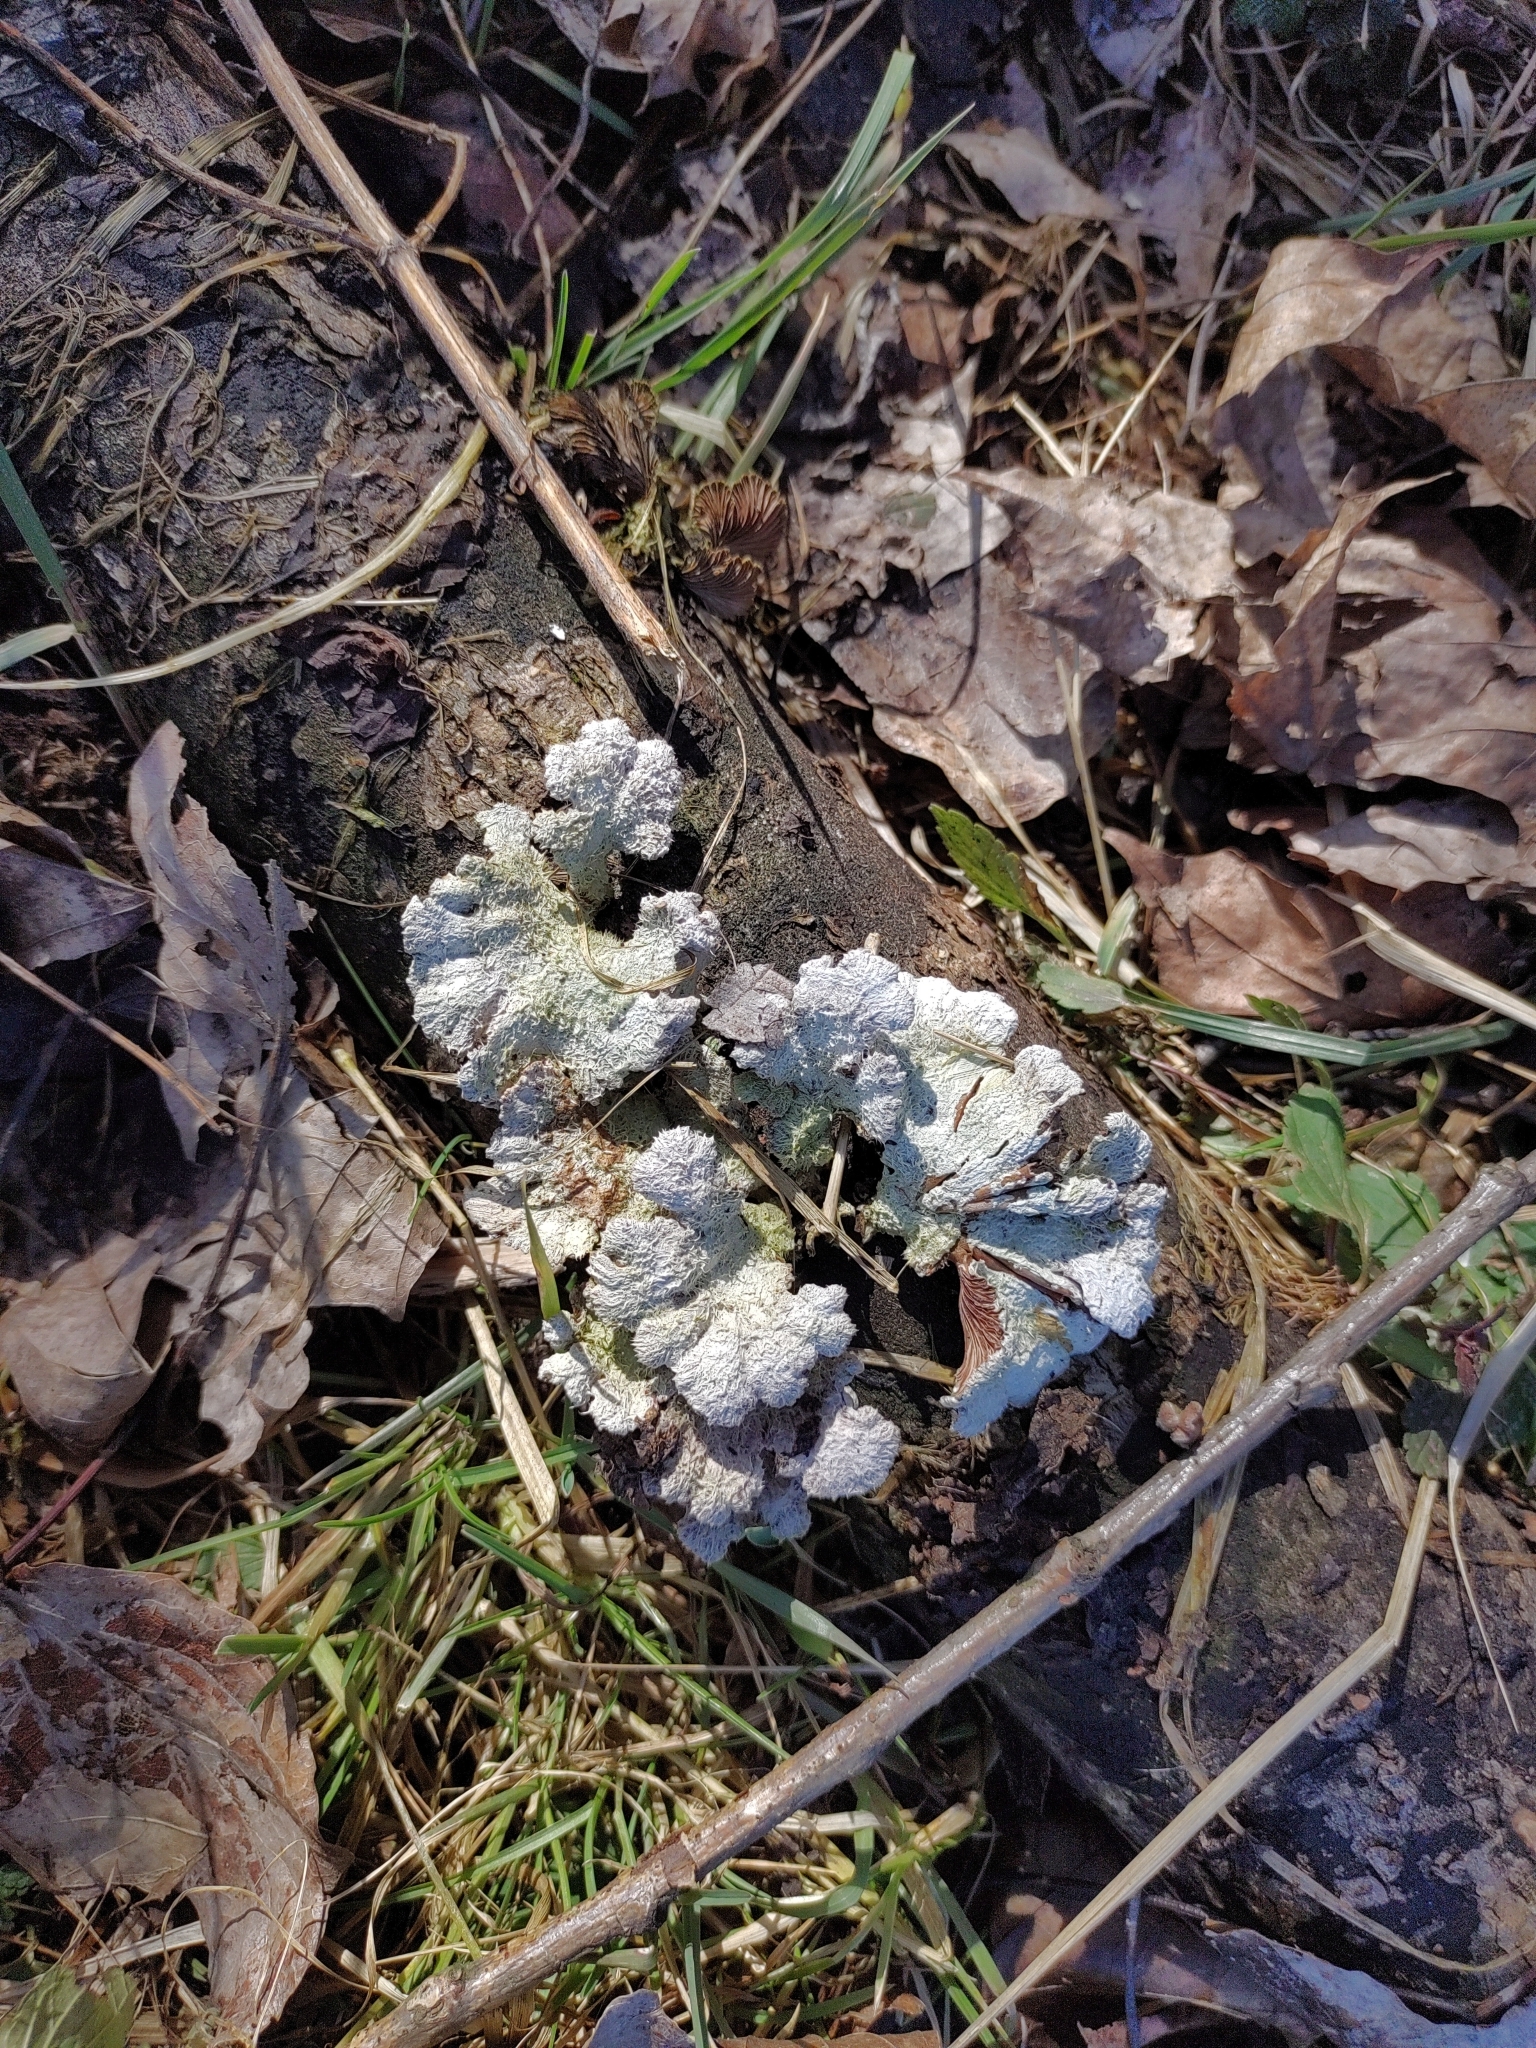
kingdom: Fungi
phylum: Basidiomycota
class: Agaricomycetes
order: Agaricales
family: Schizophyllaceae
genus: Schizophyllum
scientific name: Schizophyllum commune
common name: Common porecrust
